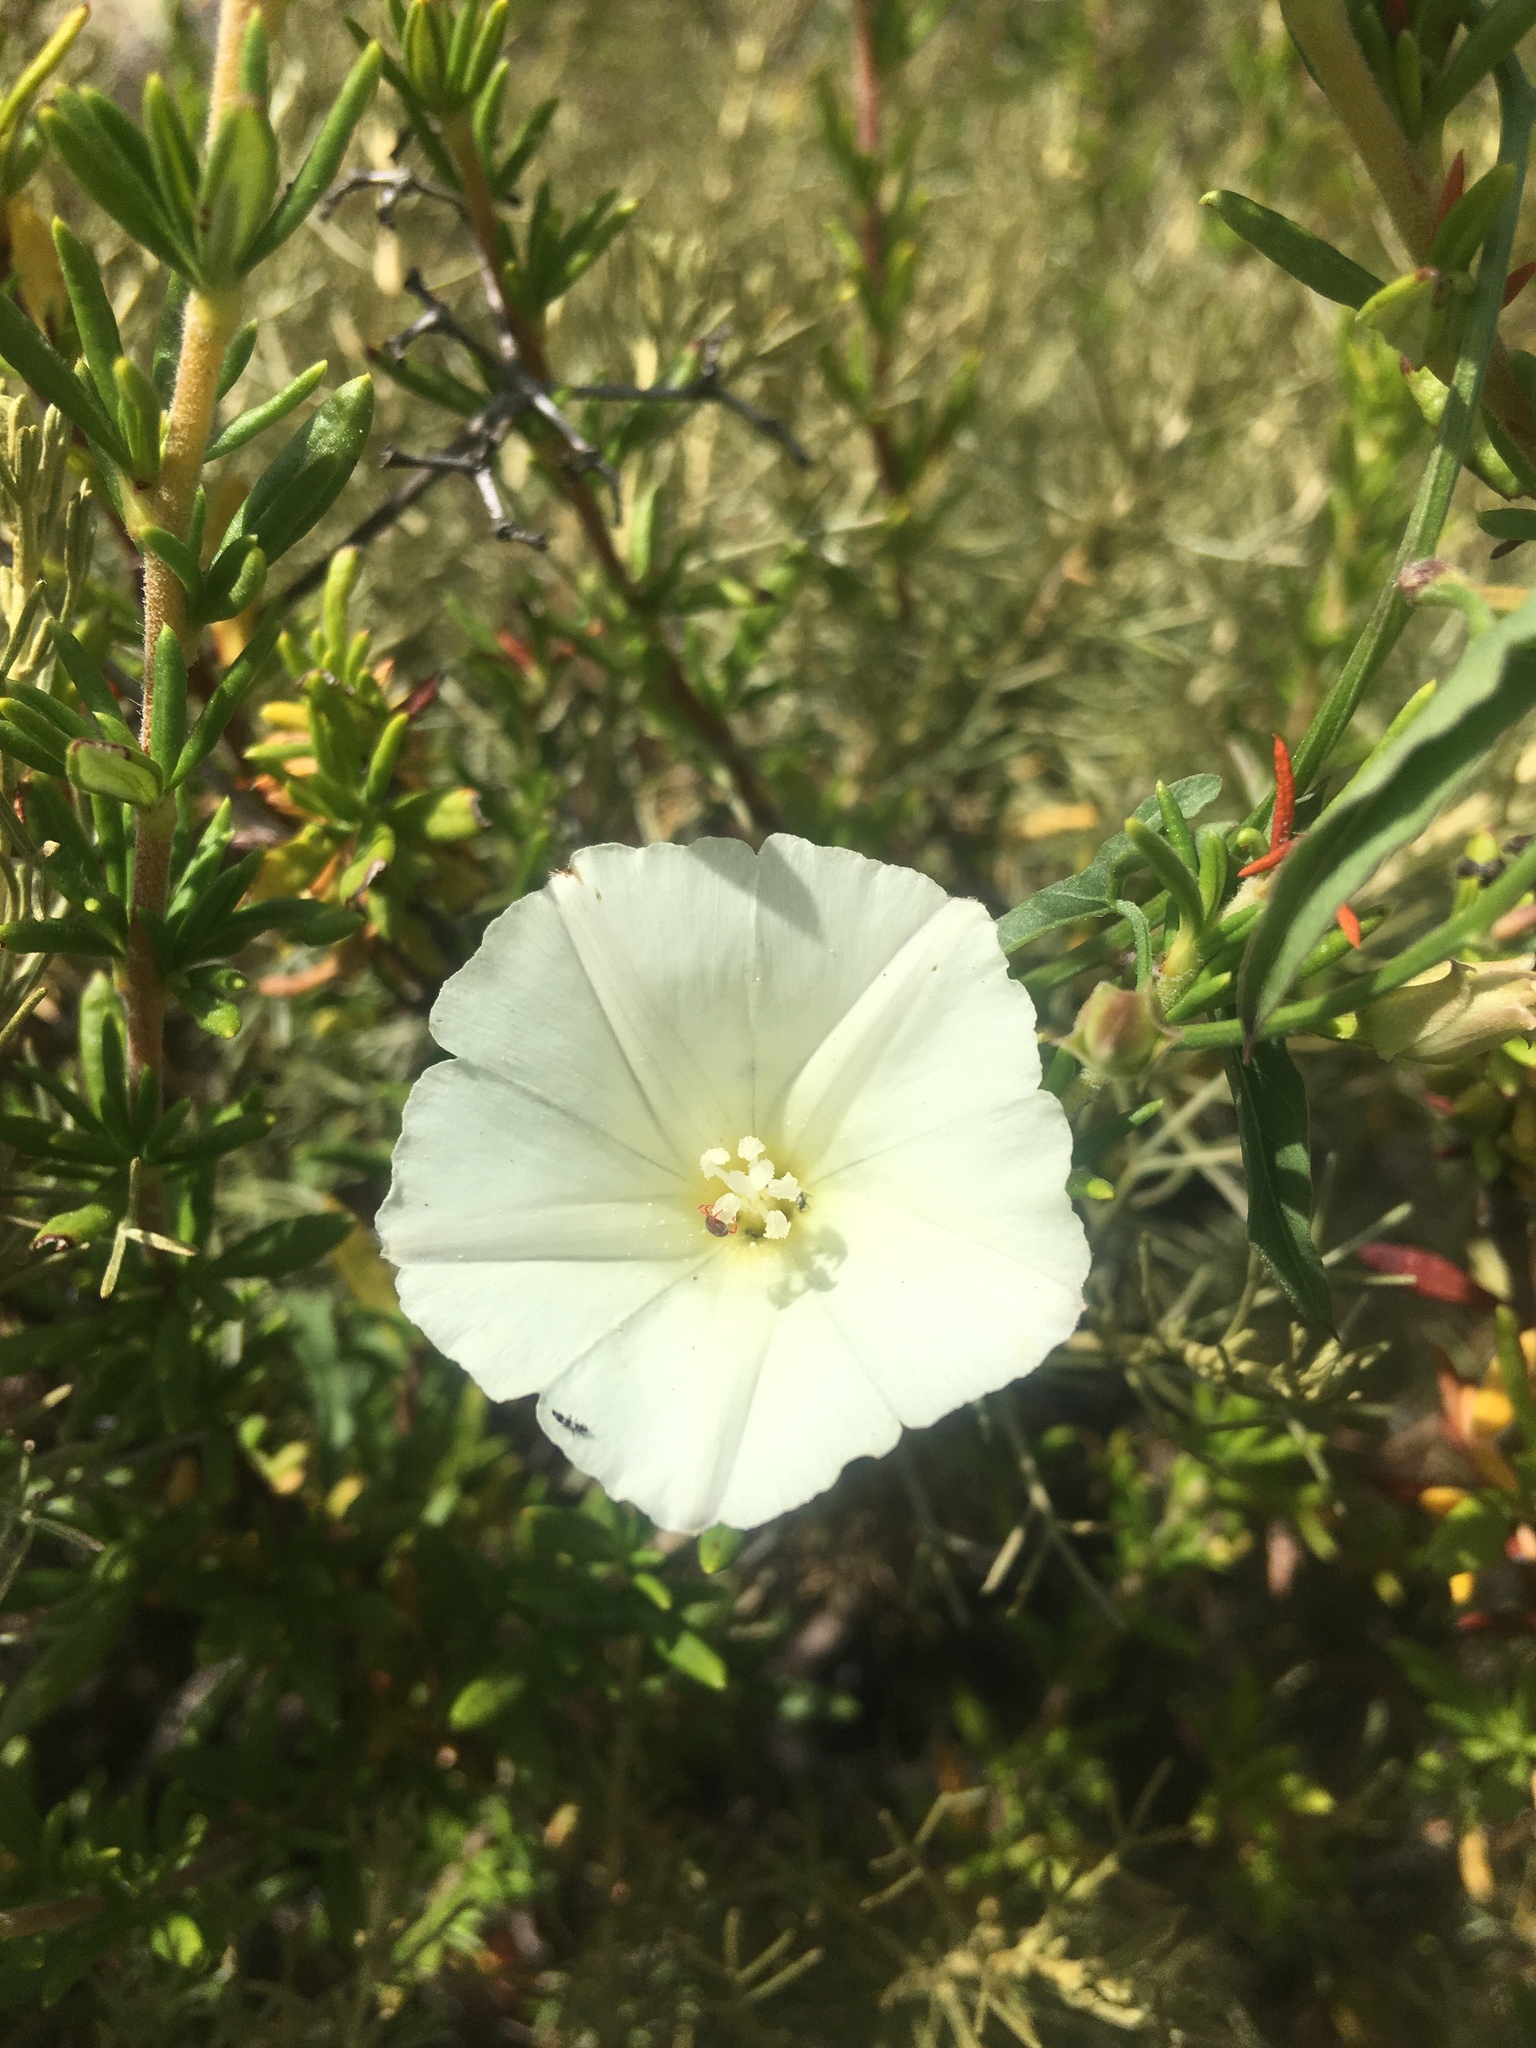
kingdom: Plantae
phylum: Tracheophyta
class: Magnoliopsida
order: Solanales
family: Convolvulaceae
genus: Calystegia
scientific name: Calystegia macrostegia
